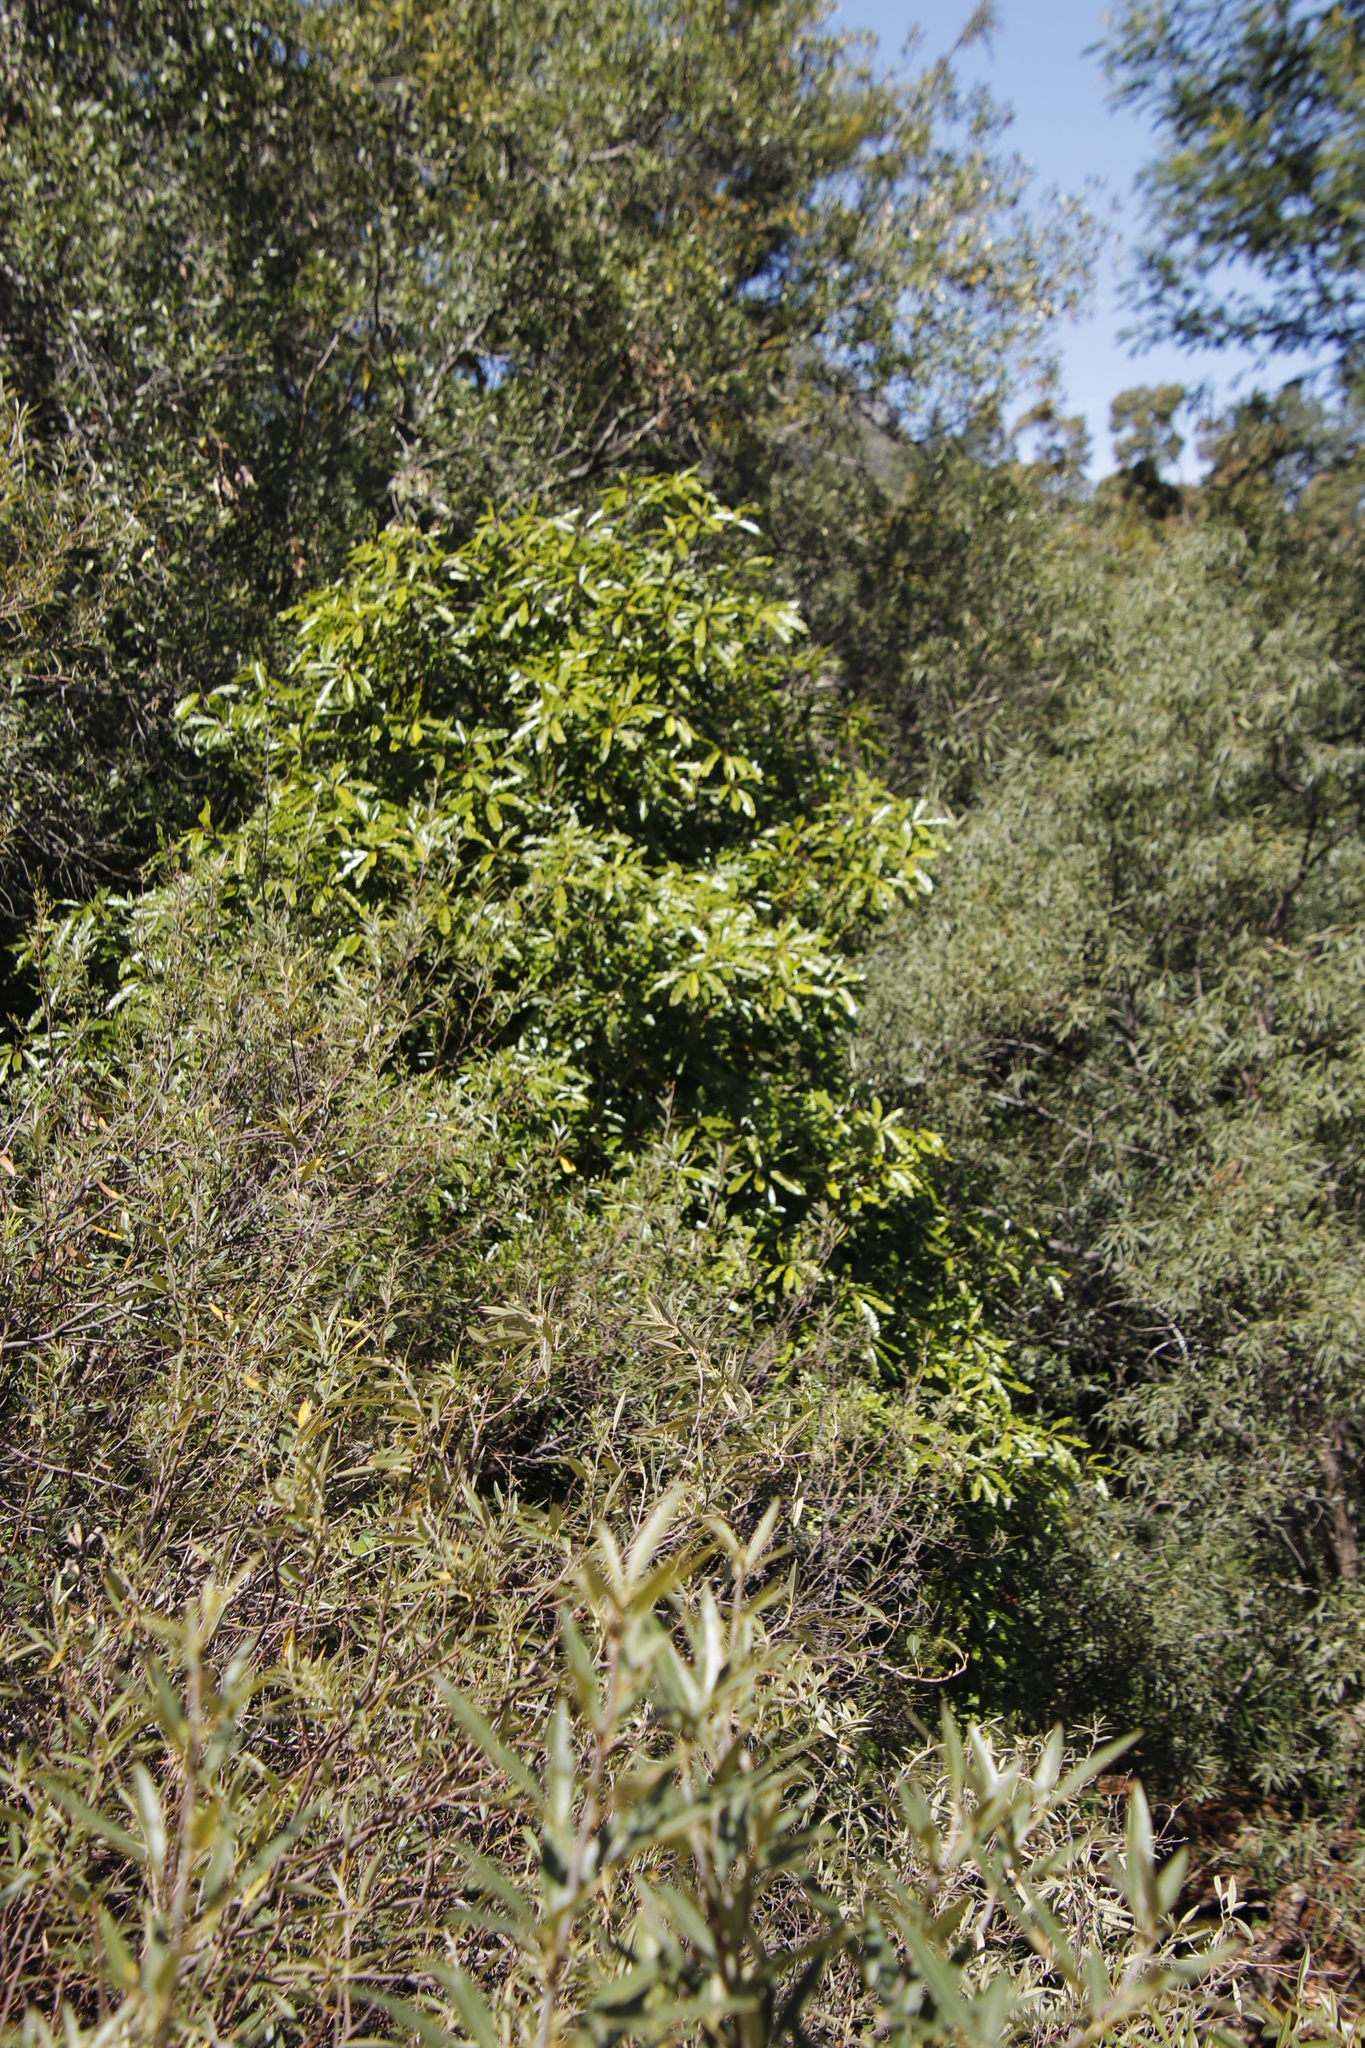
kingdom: Plantae
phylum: Tracheophyta
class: Magnoliopsida
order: Apiales
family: Pittosporaceae
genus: Pittosporum
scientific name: Pittosporum undulatum
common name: Australian cheesewood
